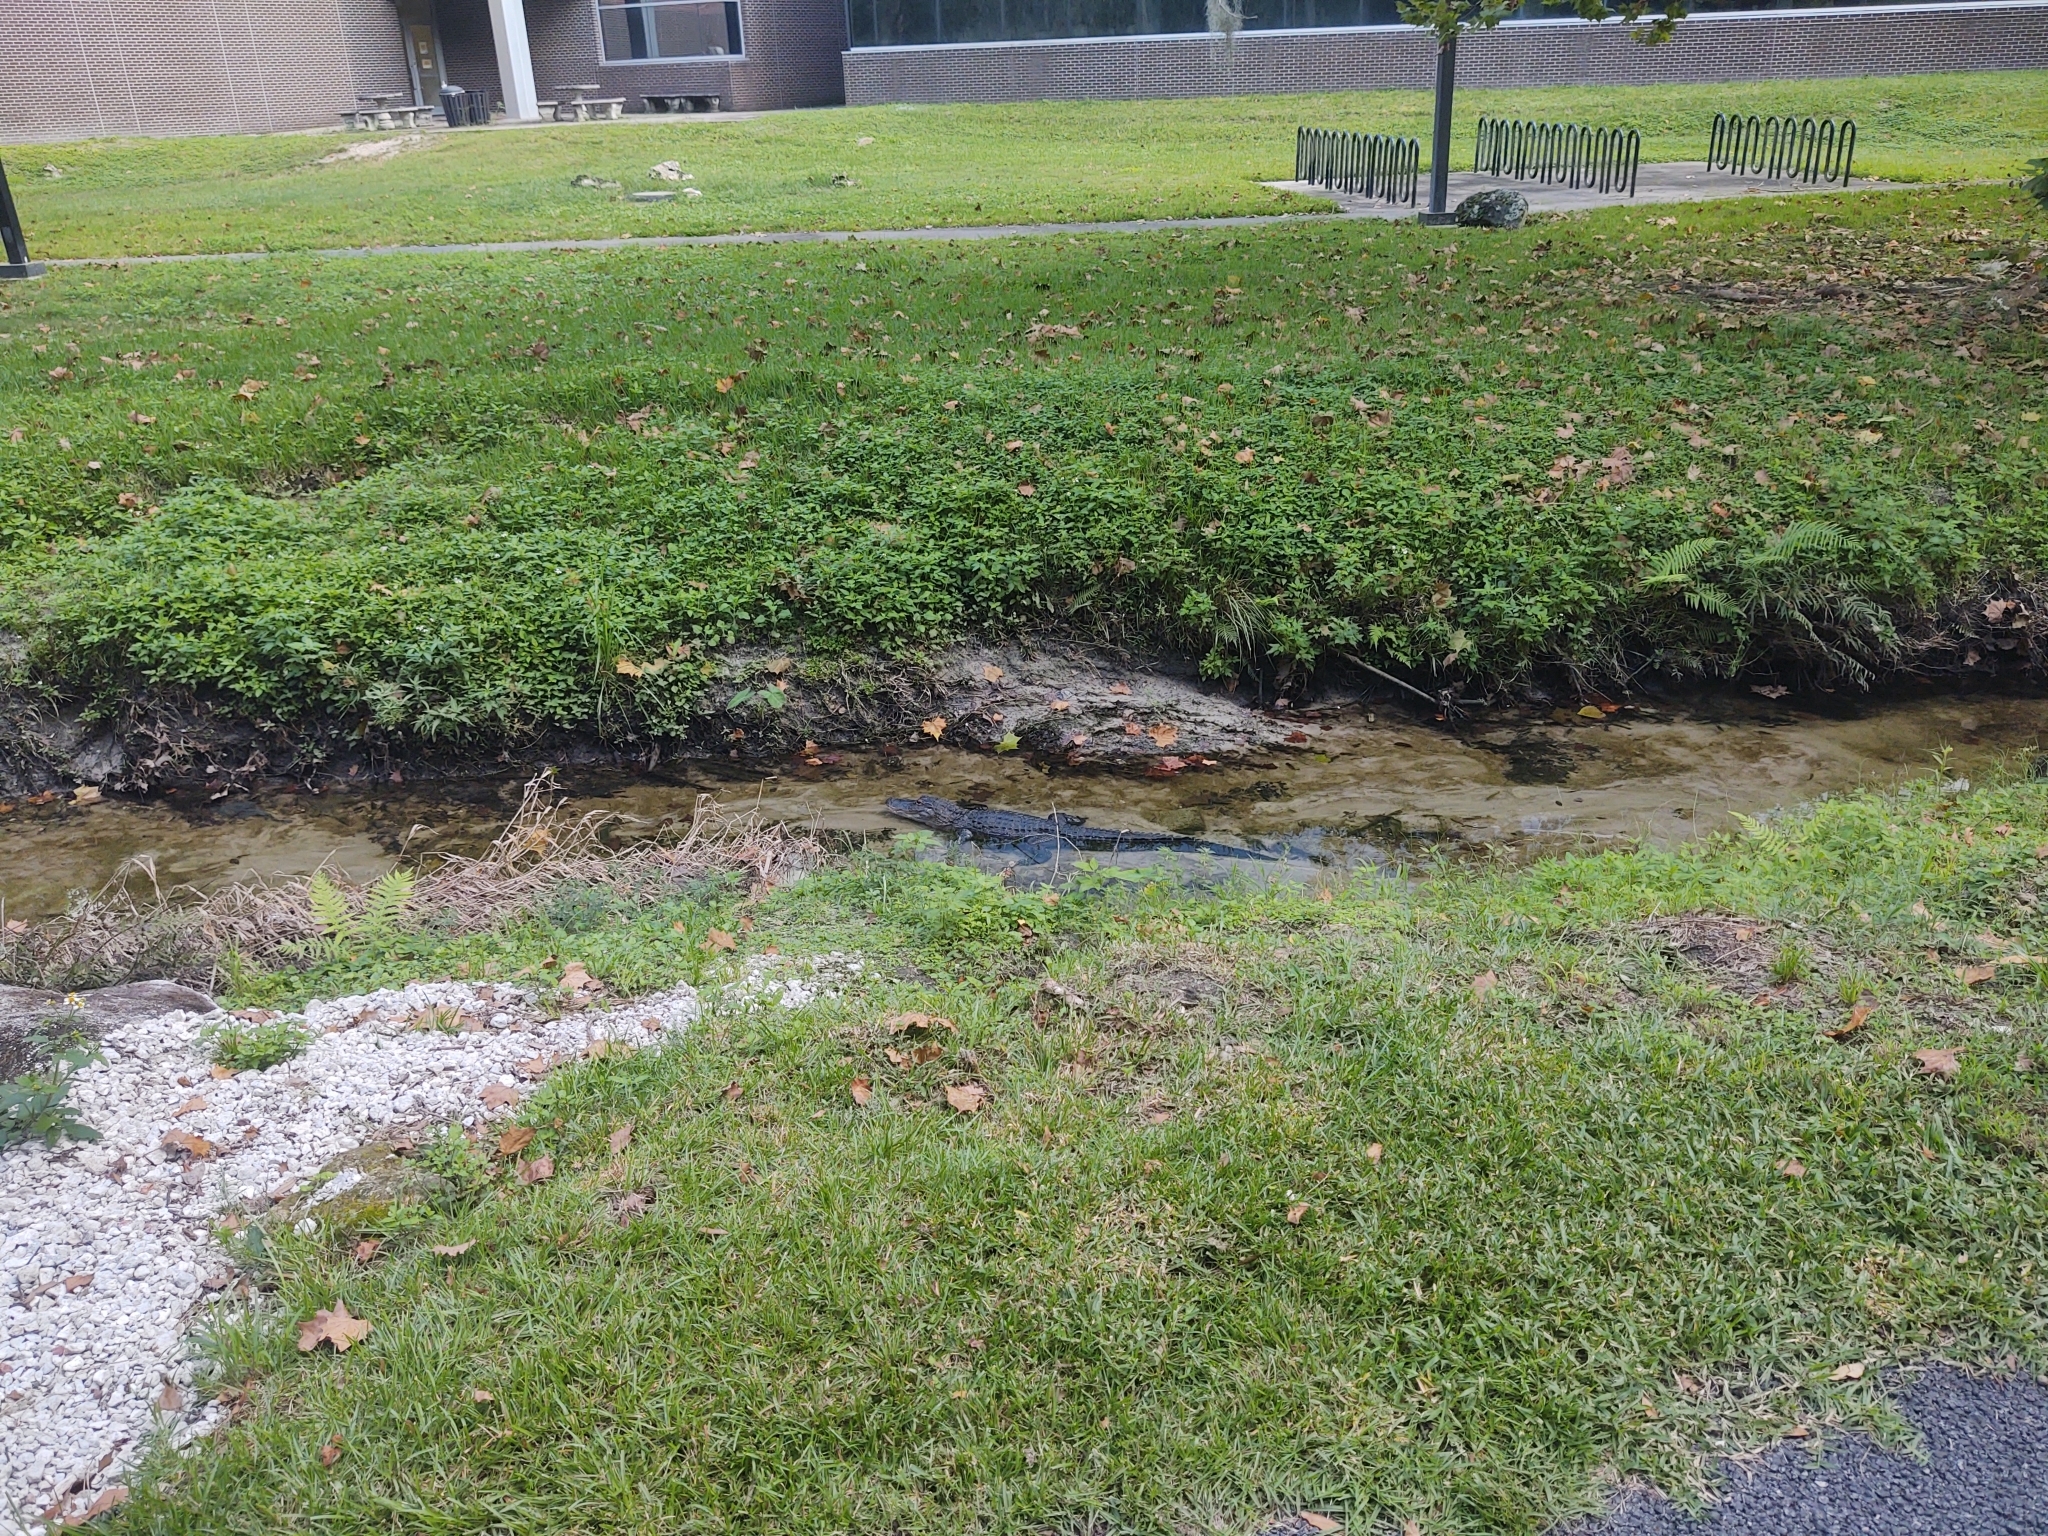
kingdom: Animalia
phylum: Chordata
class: Crocodylia
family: Alligatoridae
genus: Alligator
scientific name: Alligator mississippiensis
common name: American alligator
